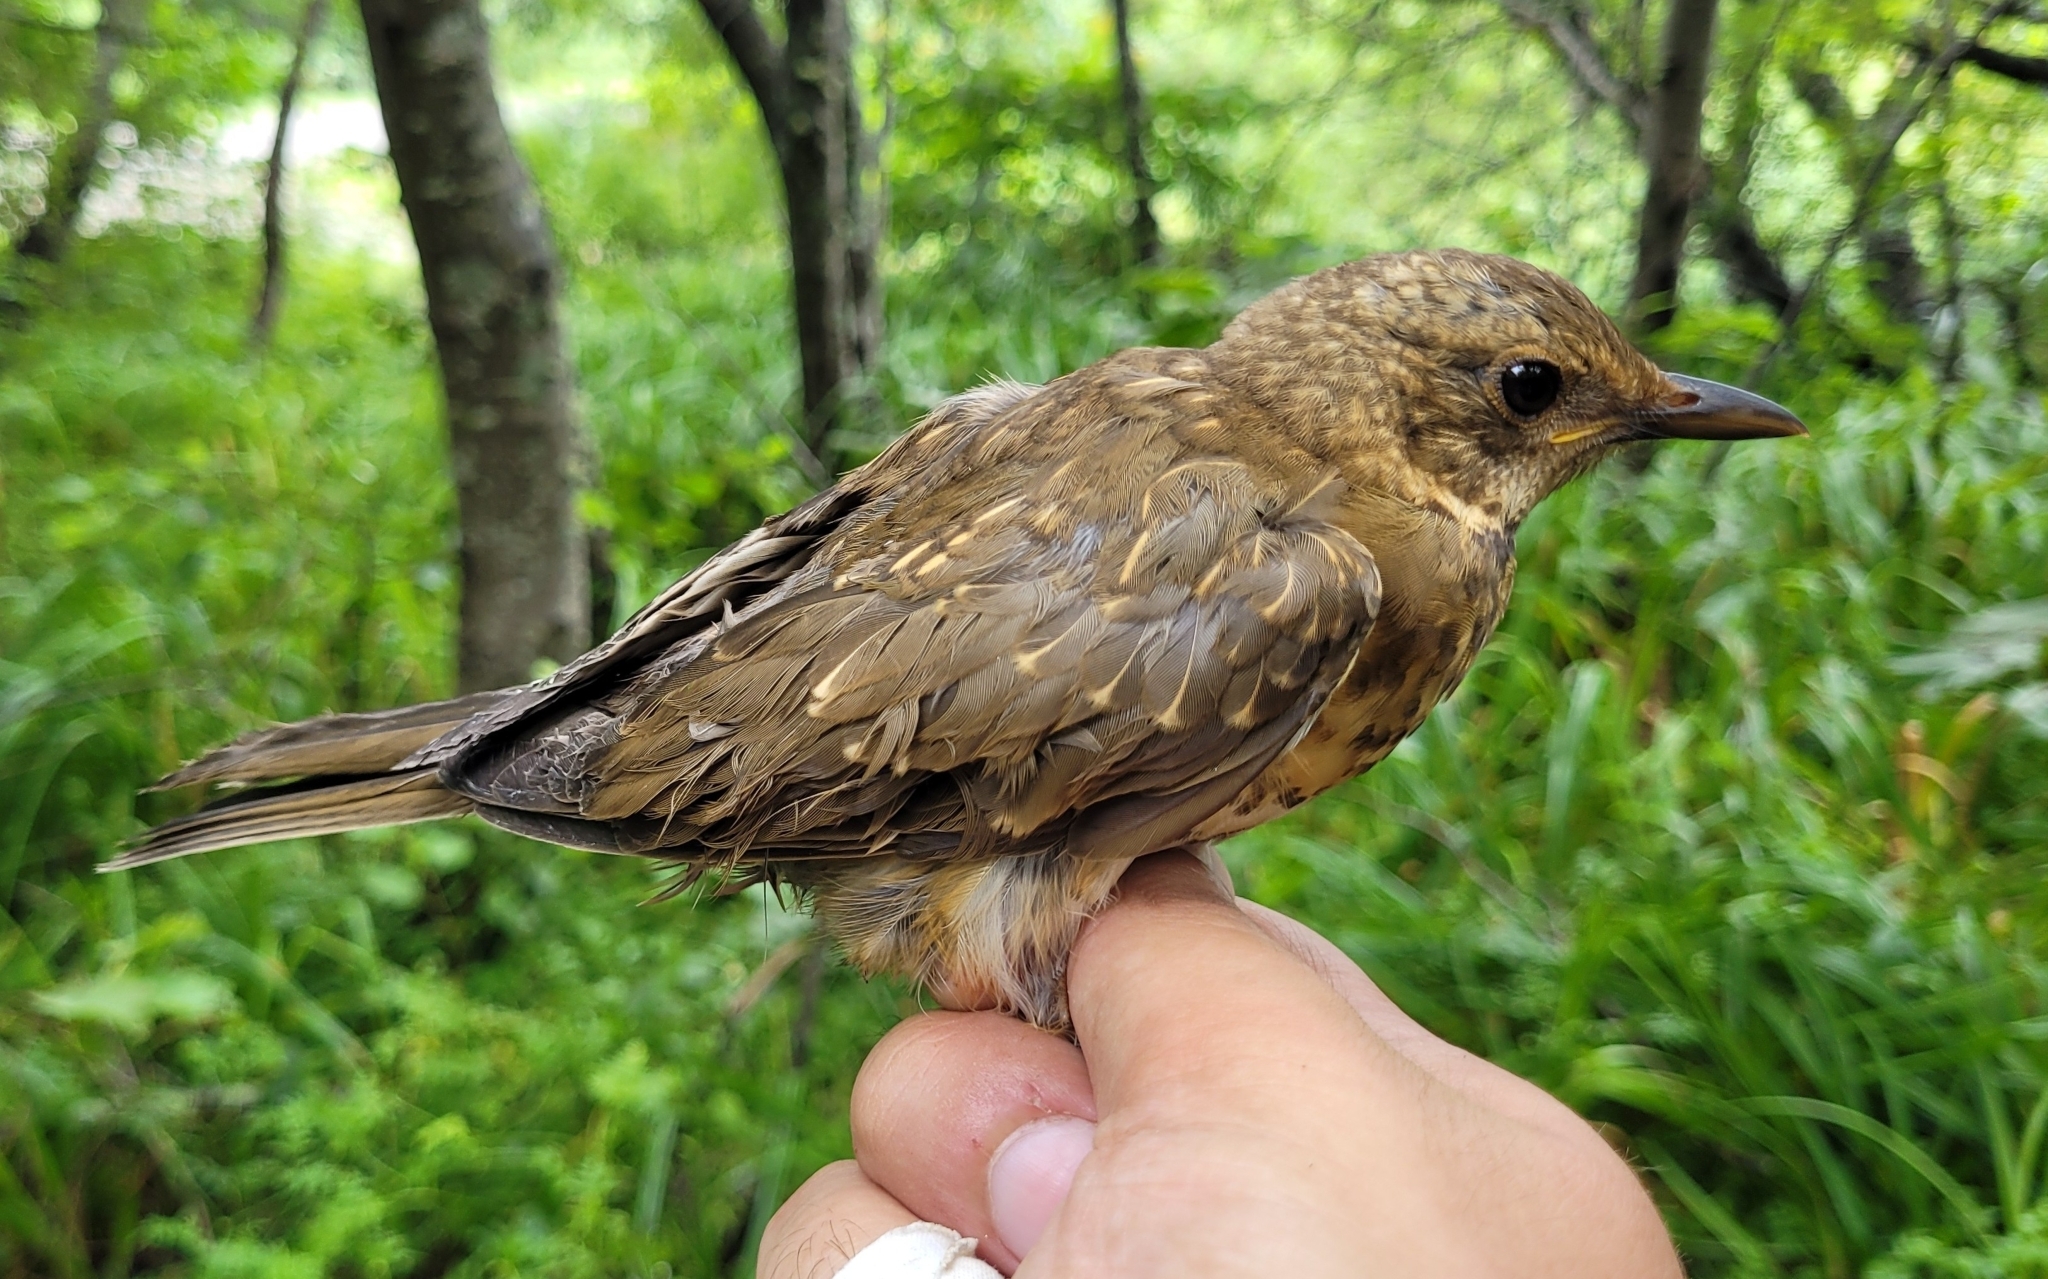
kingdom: Animalia
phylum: Chordata
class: Aves
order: Passeriformes
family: Turdidae
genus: Turdus
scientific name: Turdus chrysolaus
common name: Brown-headed thrush
